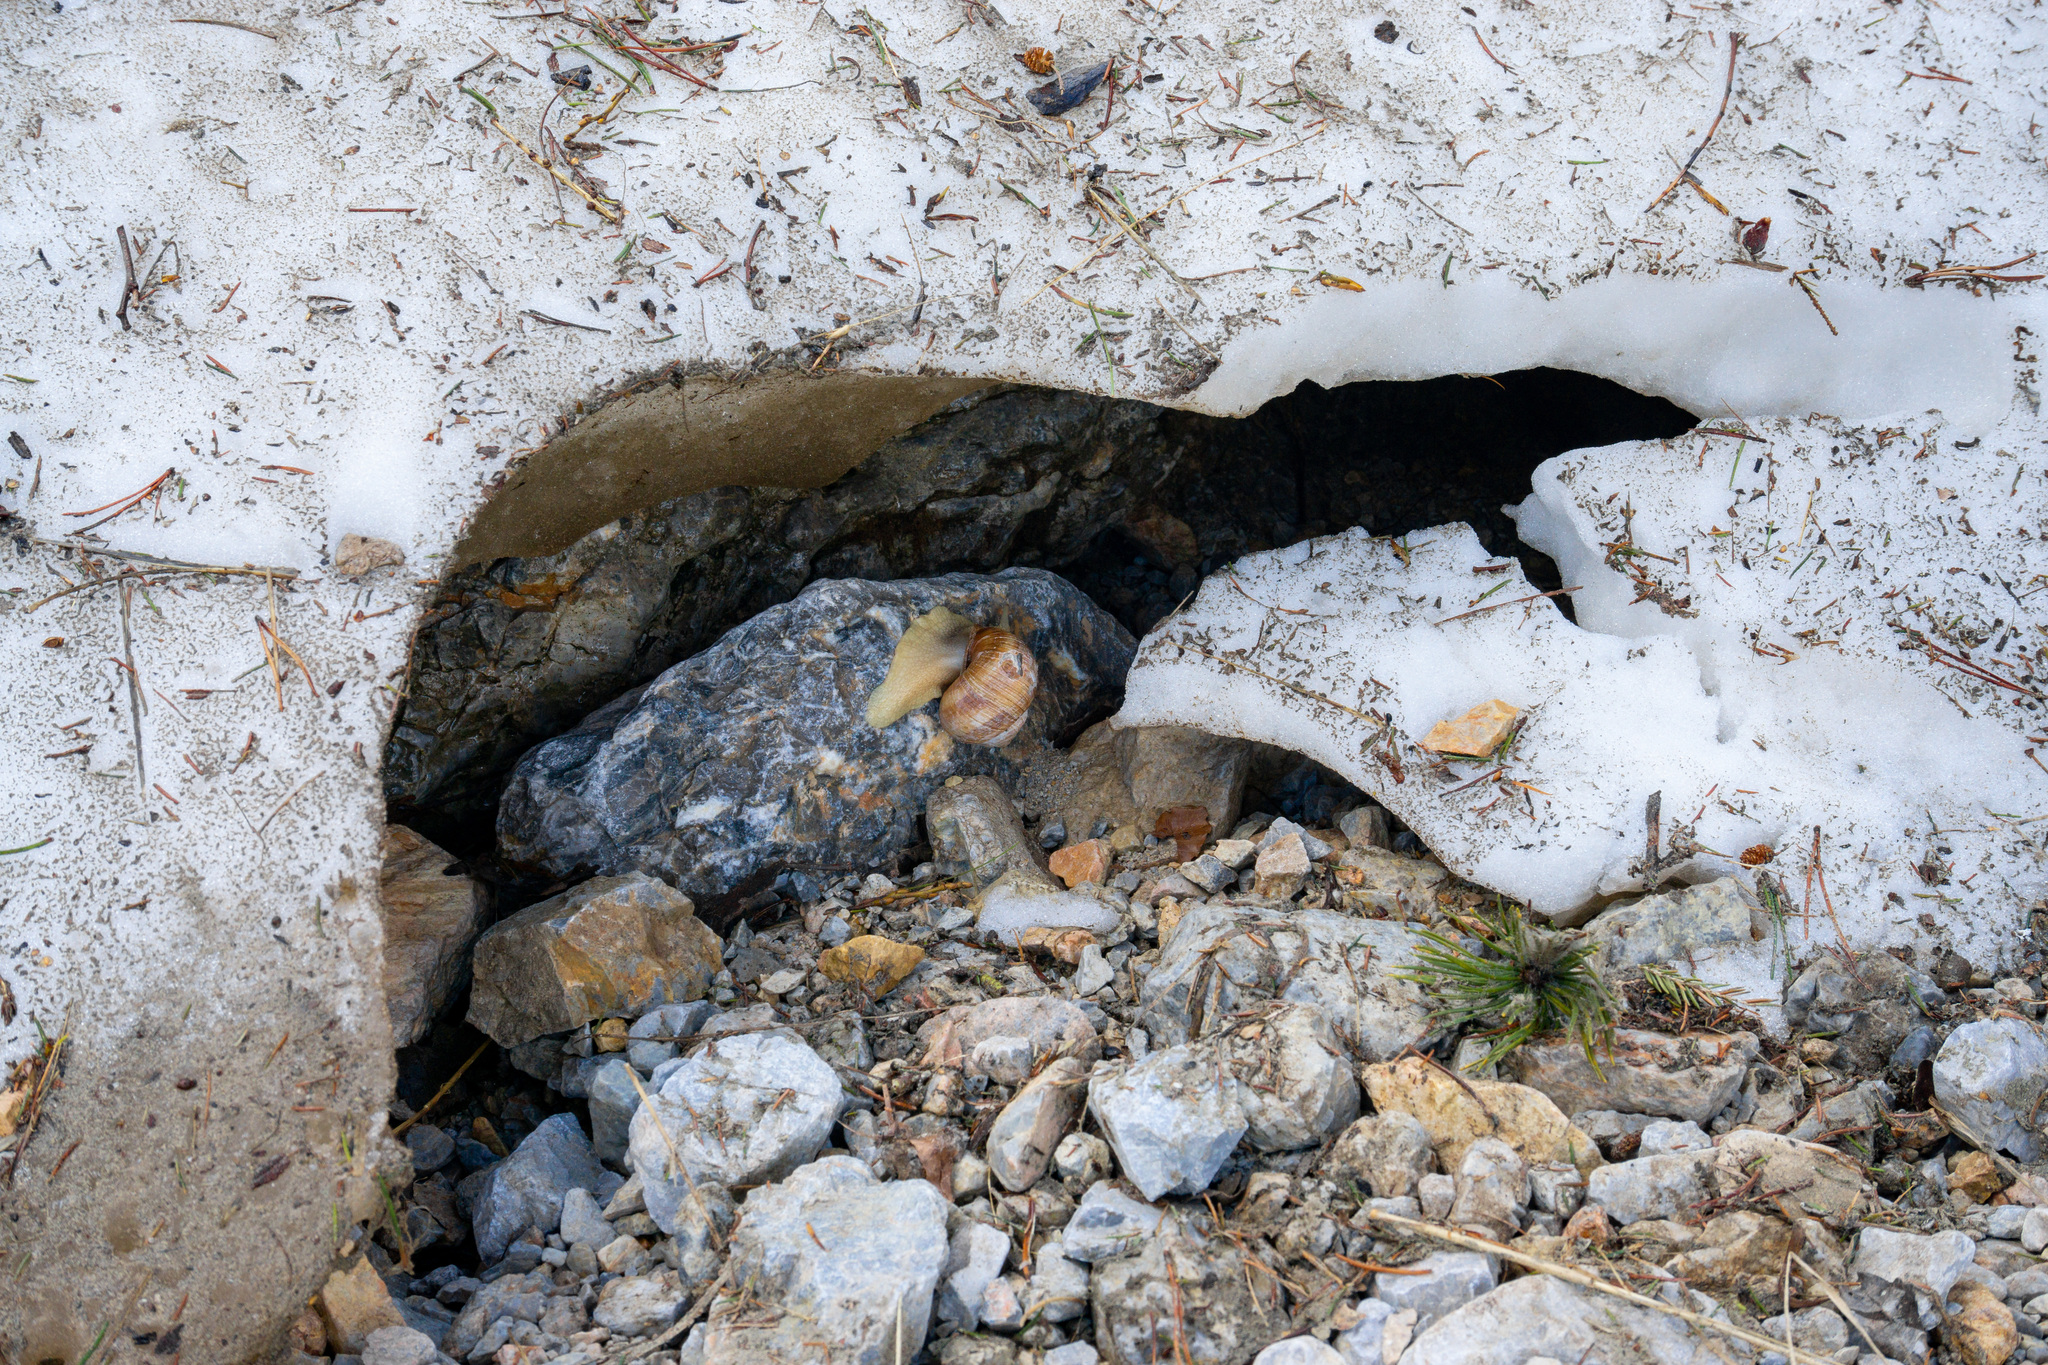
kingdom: Animalia
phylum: Mollusca
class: Gastropoda
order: Stylommatophora
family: Helicidae
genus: Helix
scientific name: Helix pomatia
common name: Roman snail
